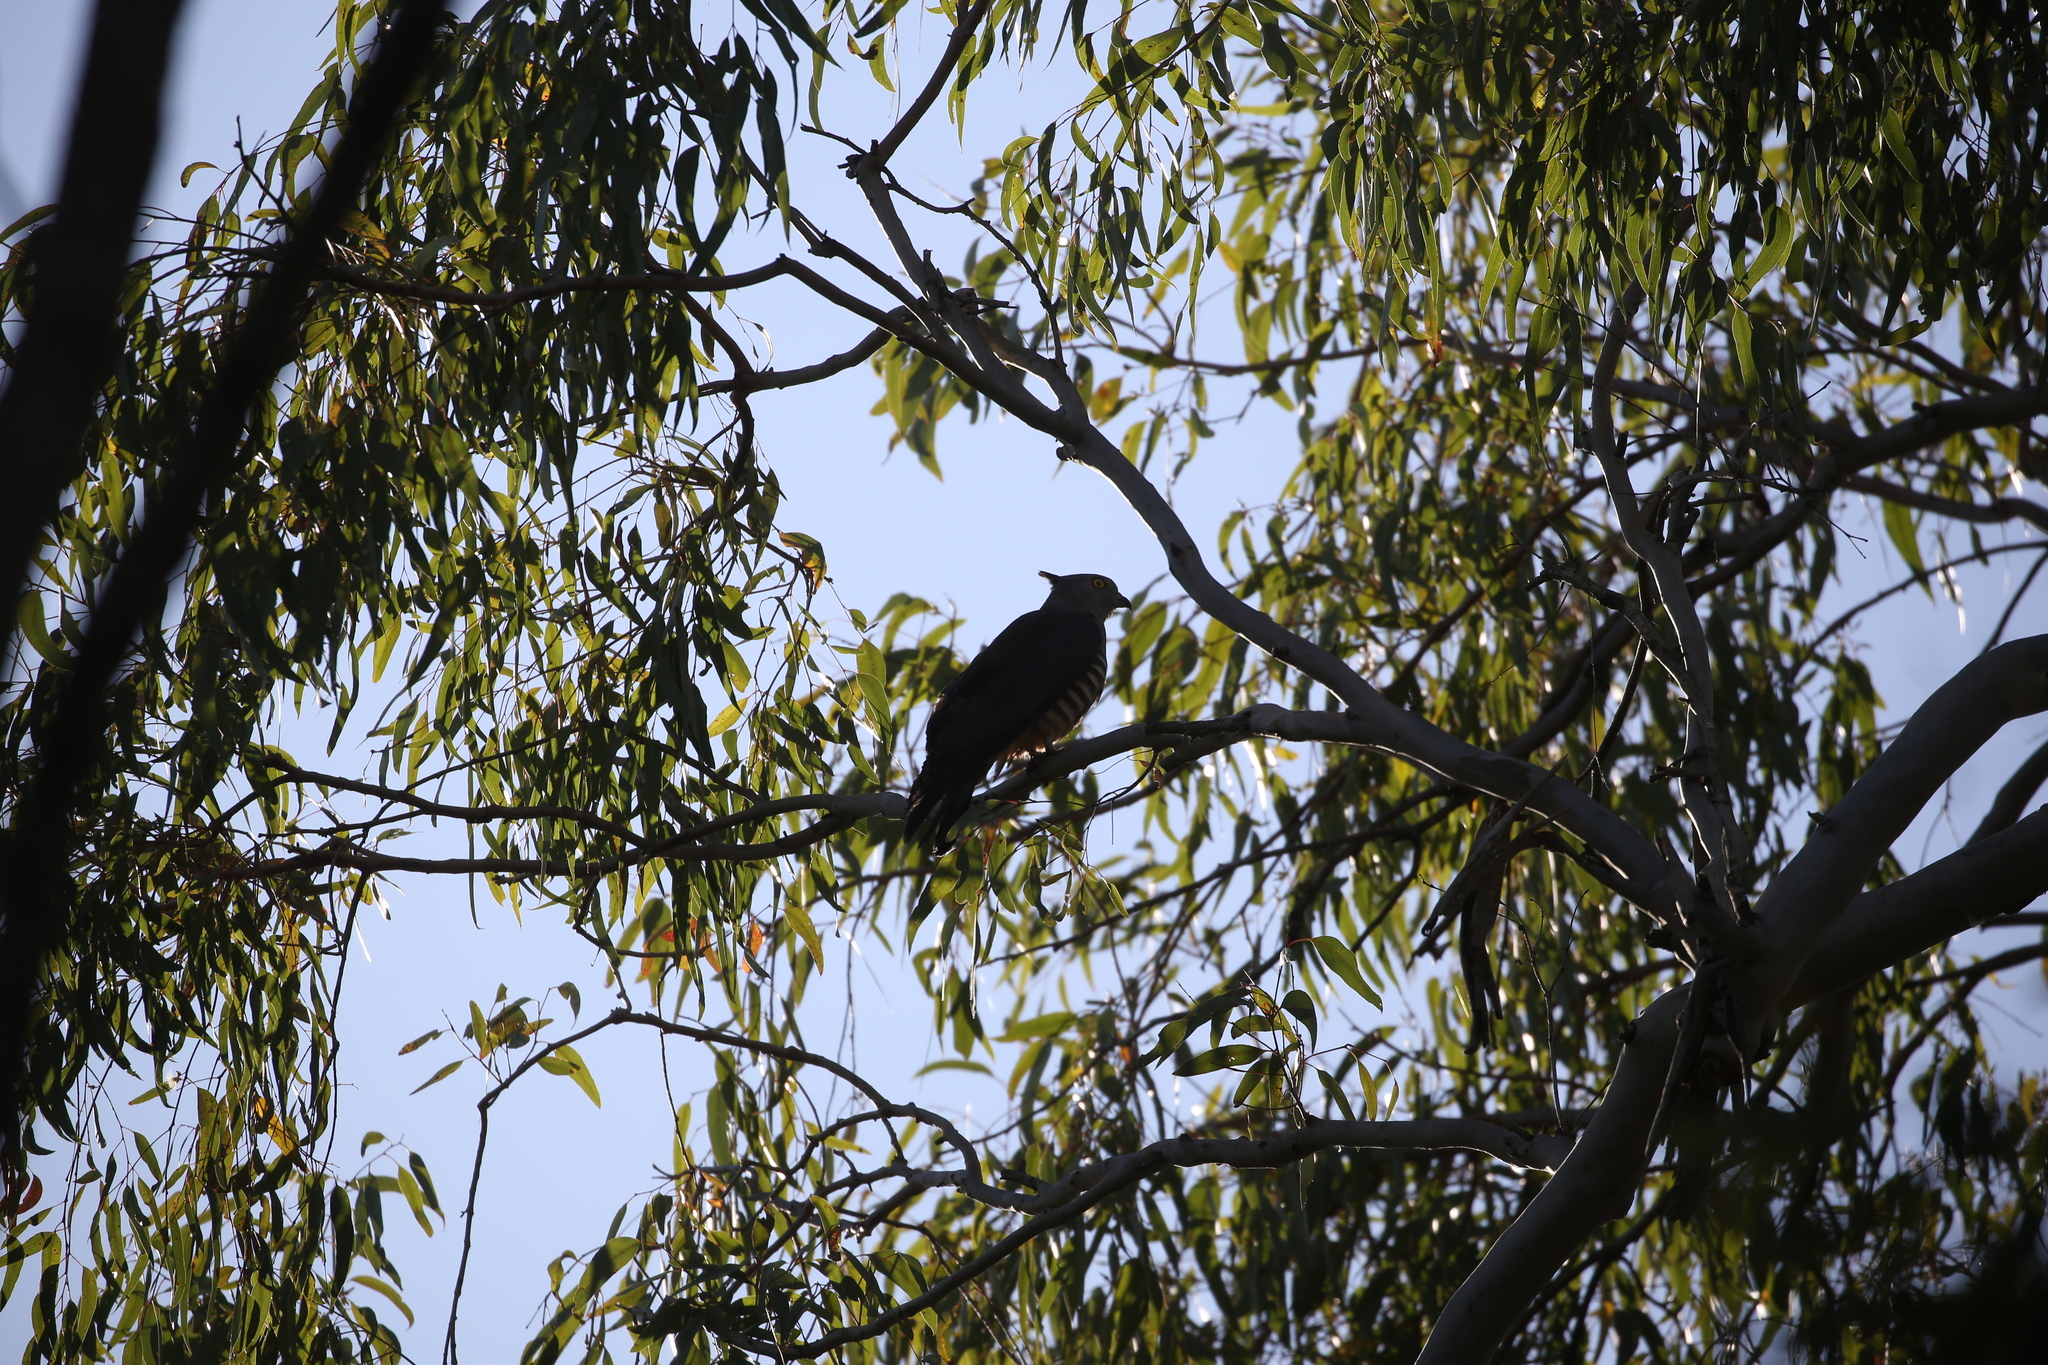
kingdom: Animalia
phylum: Chordata
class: Aves
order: Accipitriformes
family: Accipitridae
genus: Aviceda
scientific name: Aviceda subcristata
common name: Pacific baza
